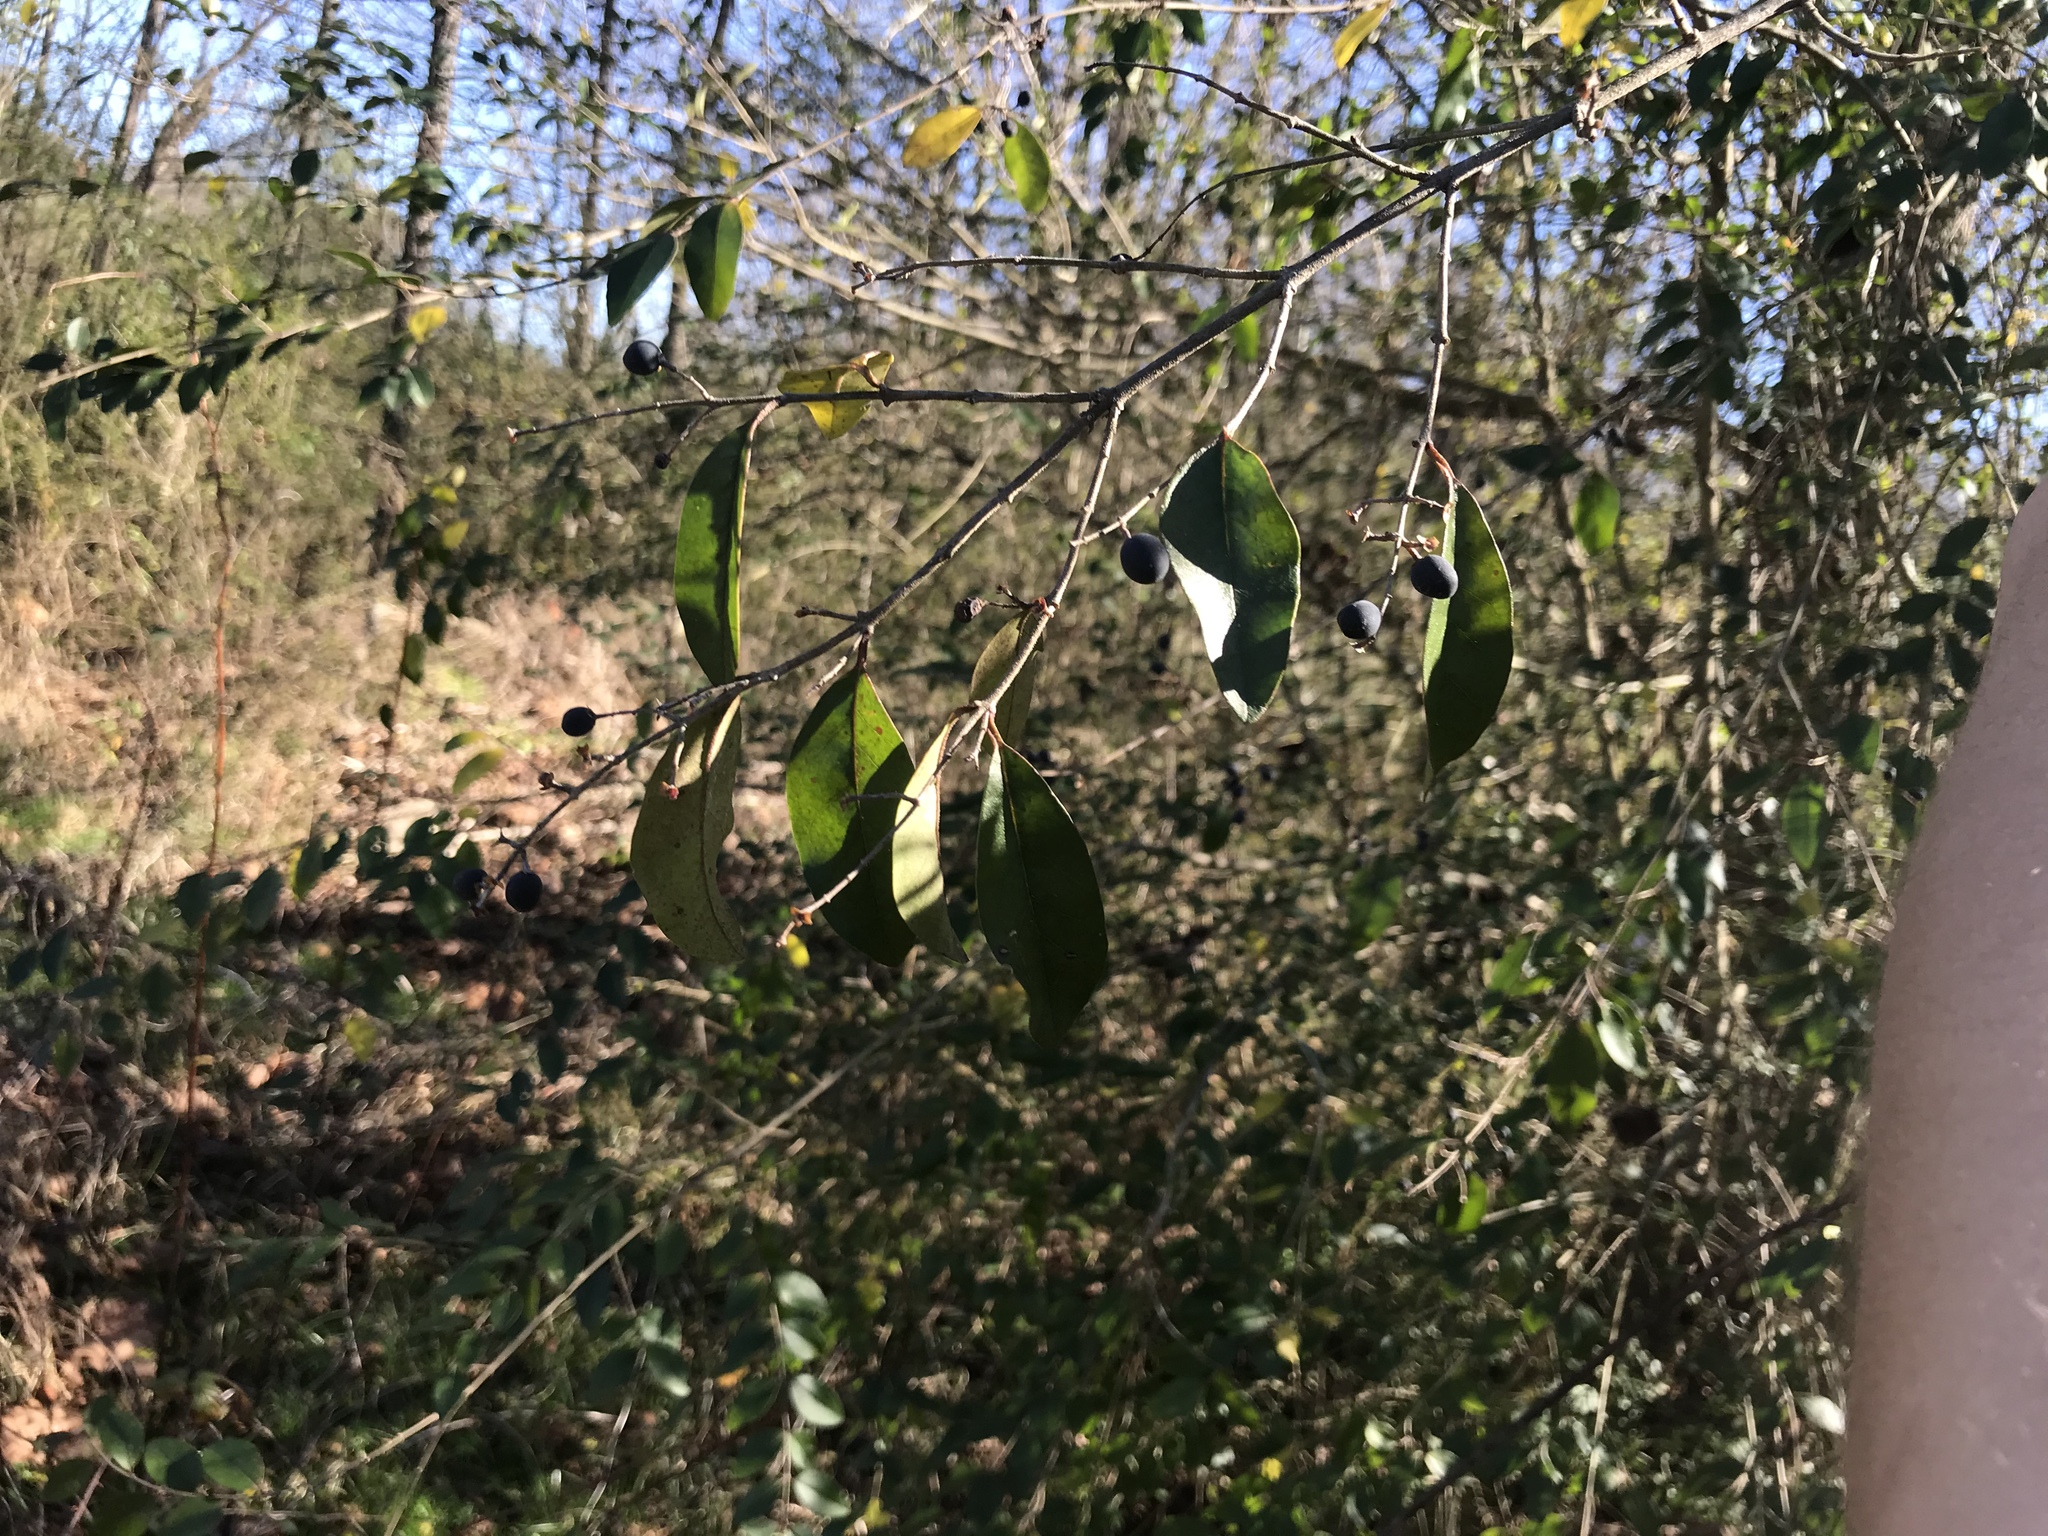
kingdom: Plantae
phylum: Tracheophyta
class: Magnoliopsida
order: Lamiales
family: Oleaceae
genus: Ligustrum
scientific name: Ligustrum sinense
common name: Chinese privet
